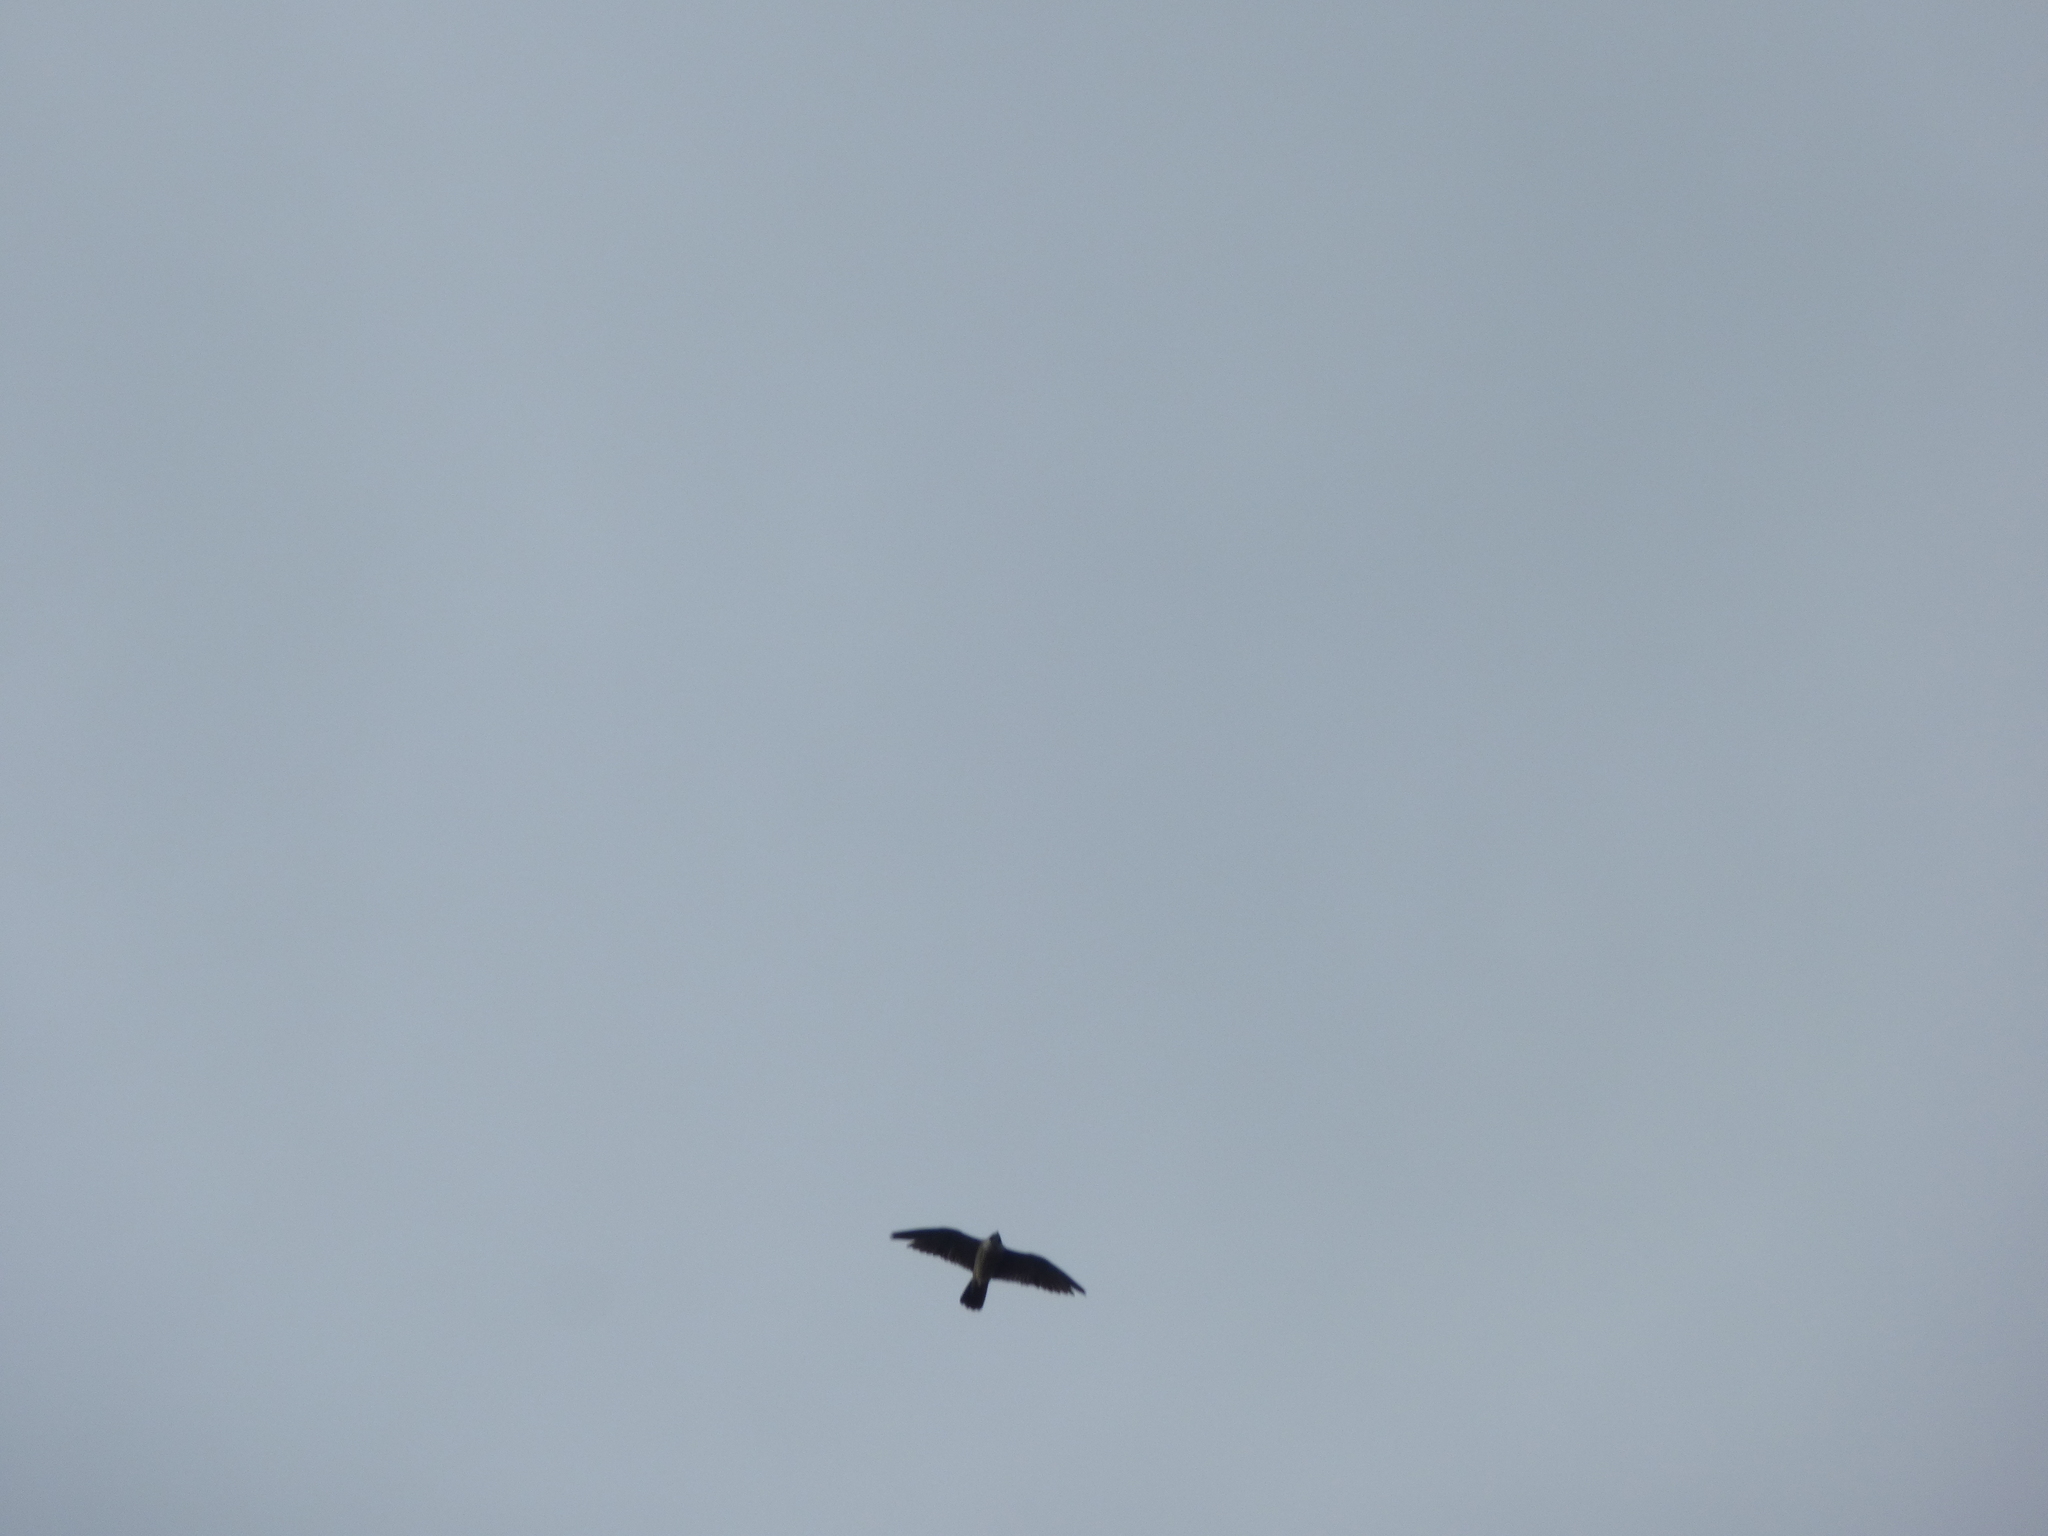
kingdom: Animalia
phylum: Chordata
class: Aves
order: Falconiformes
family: Falconidae
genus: Falco
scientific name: Falco peregrinus
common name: Peregrine falcon
